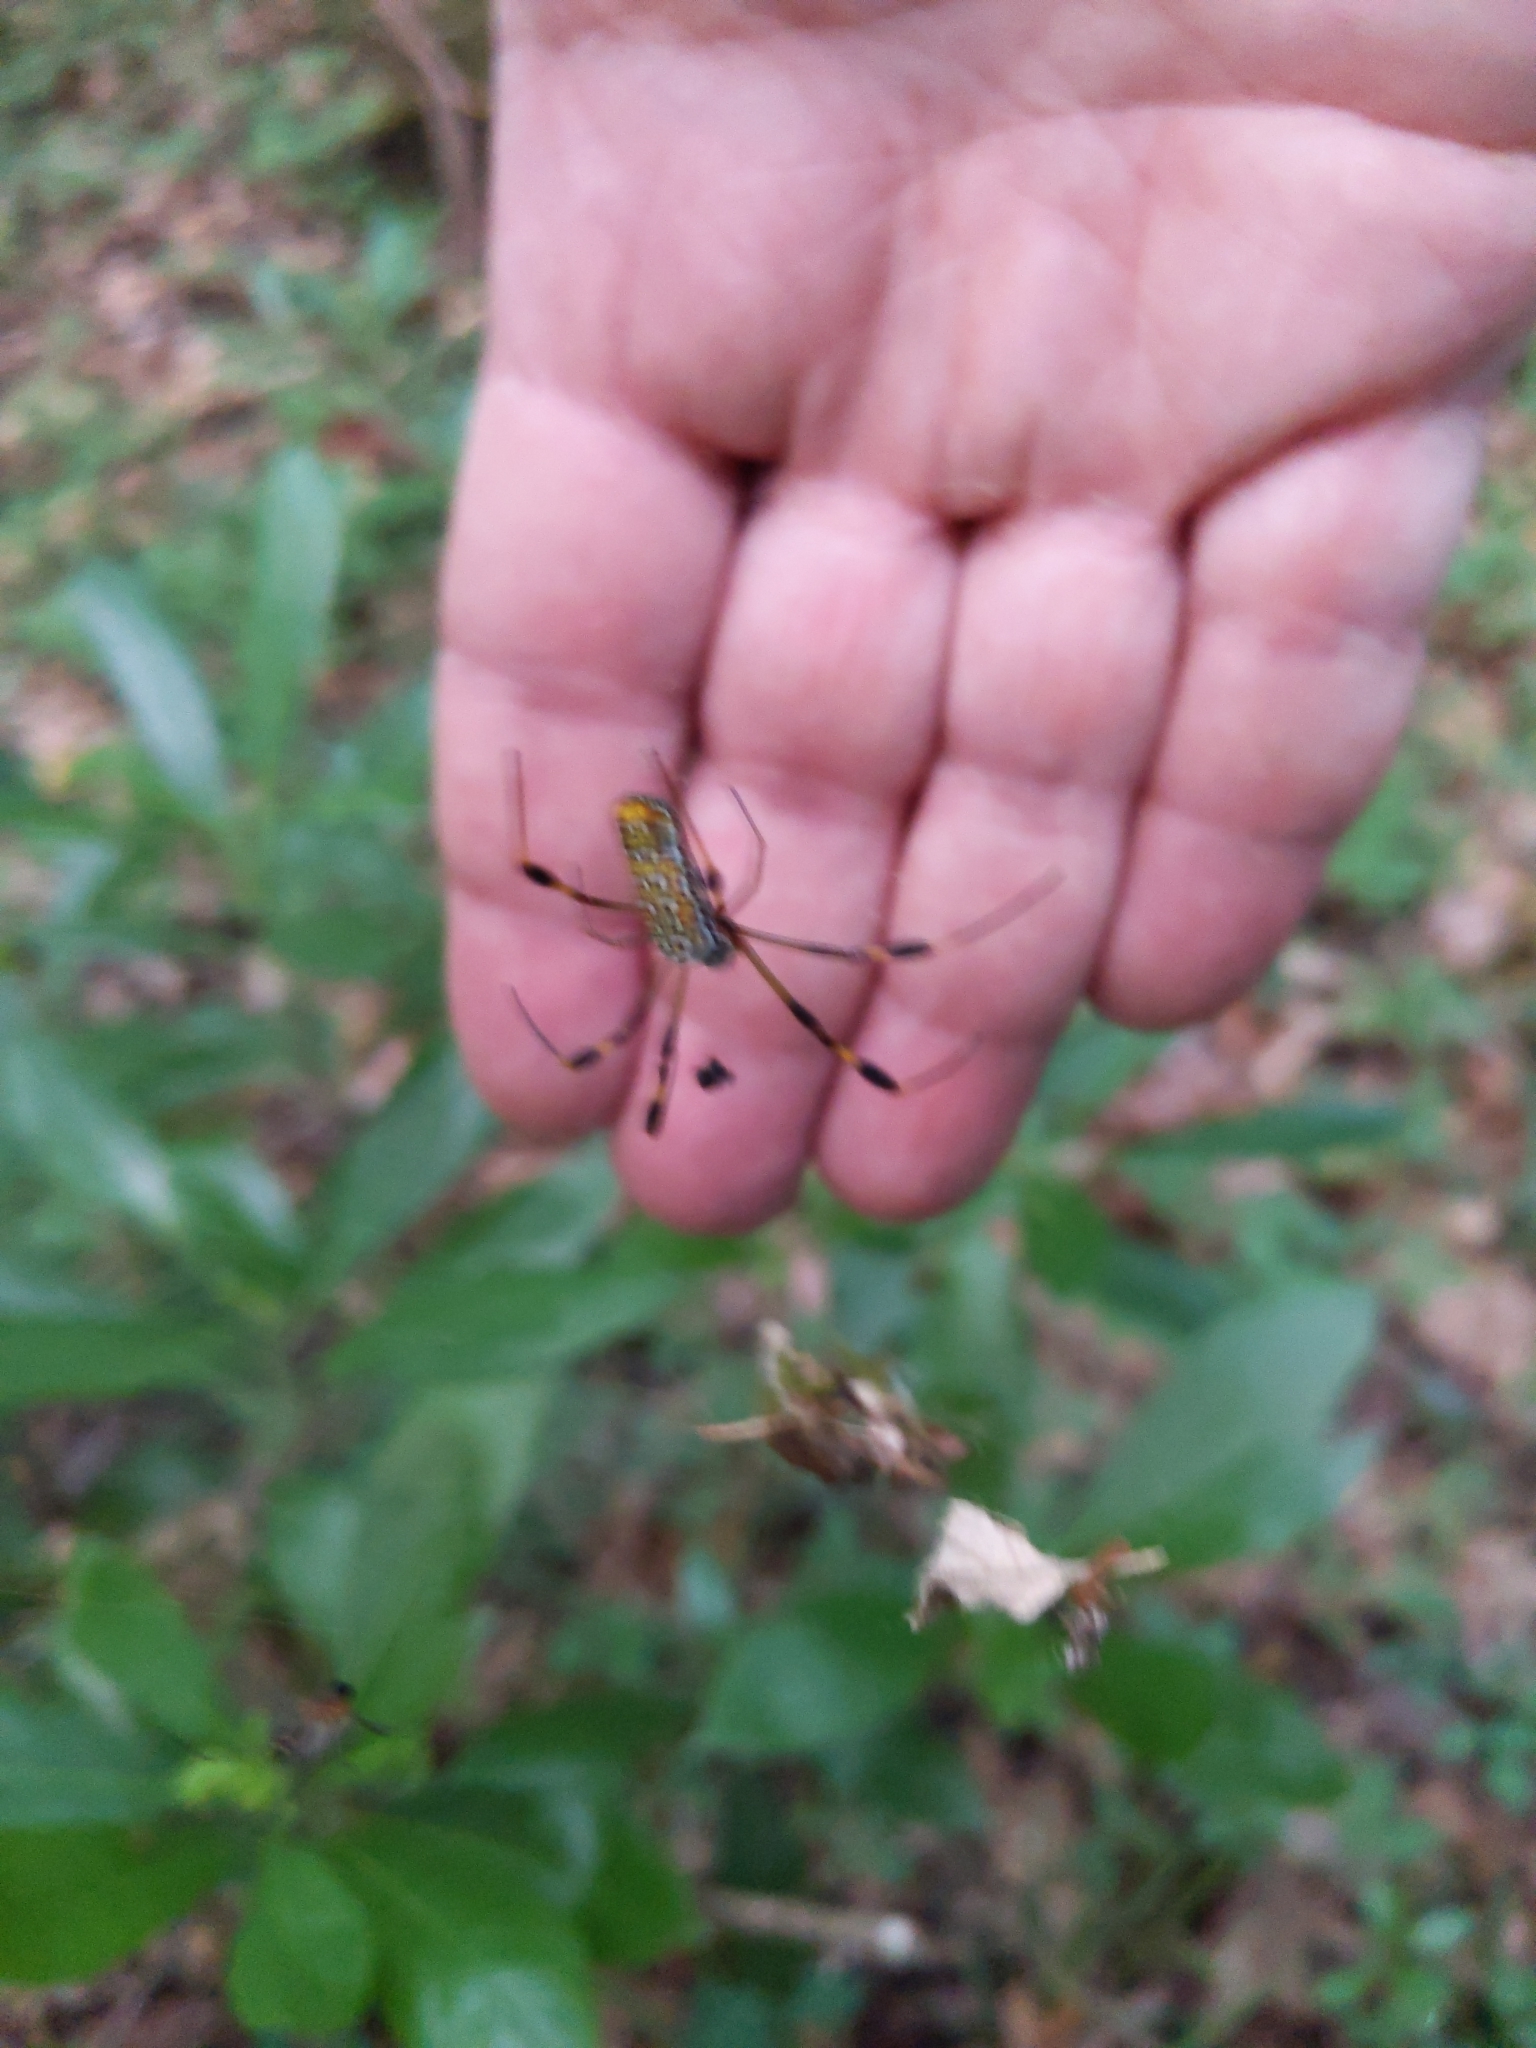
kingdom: Animalia
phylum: Arthropoda
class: Arachnida
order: Araneae
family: Araneidae
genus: Trichonephila
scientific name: Trichonephila clavipes
